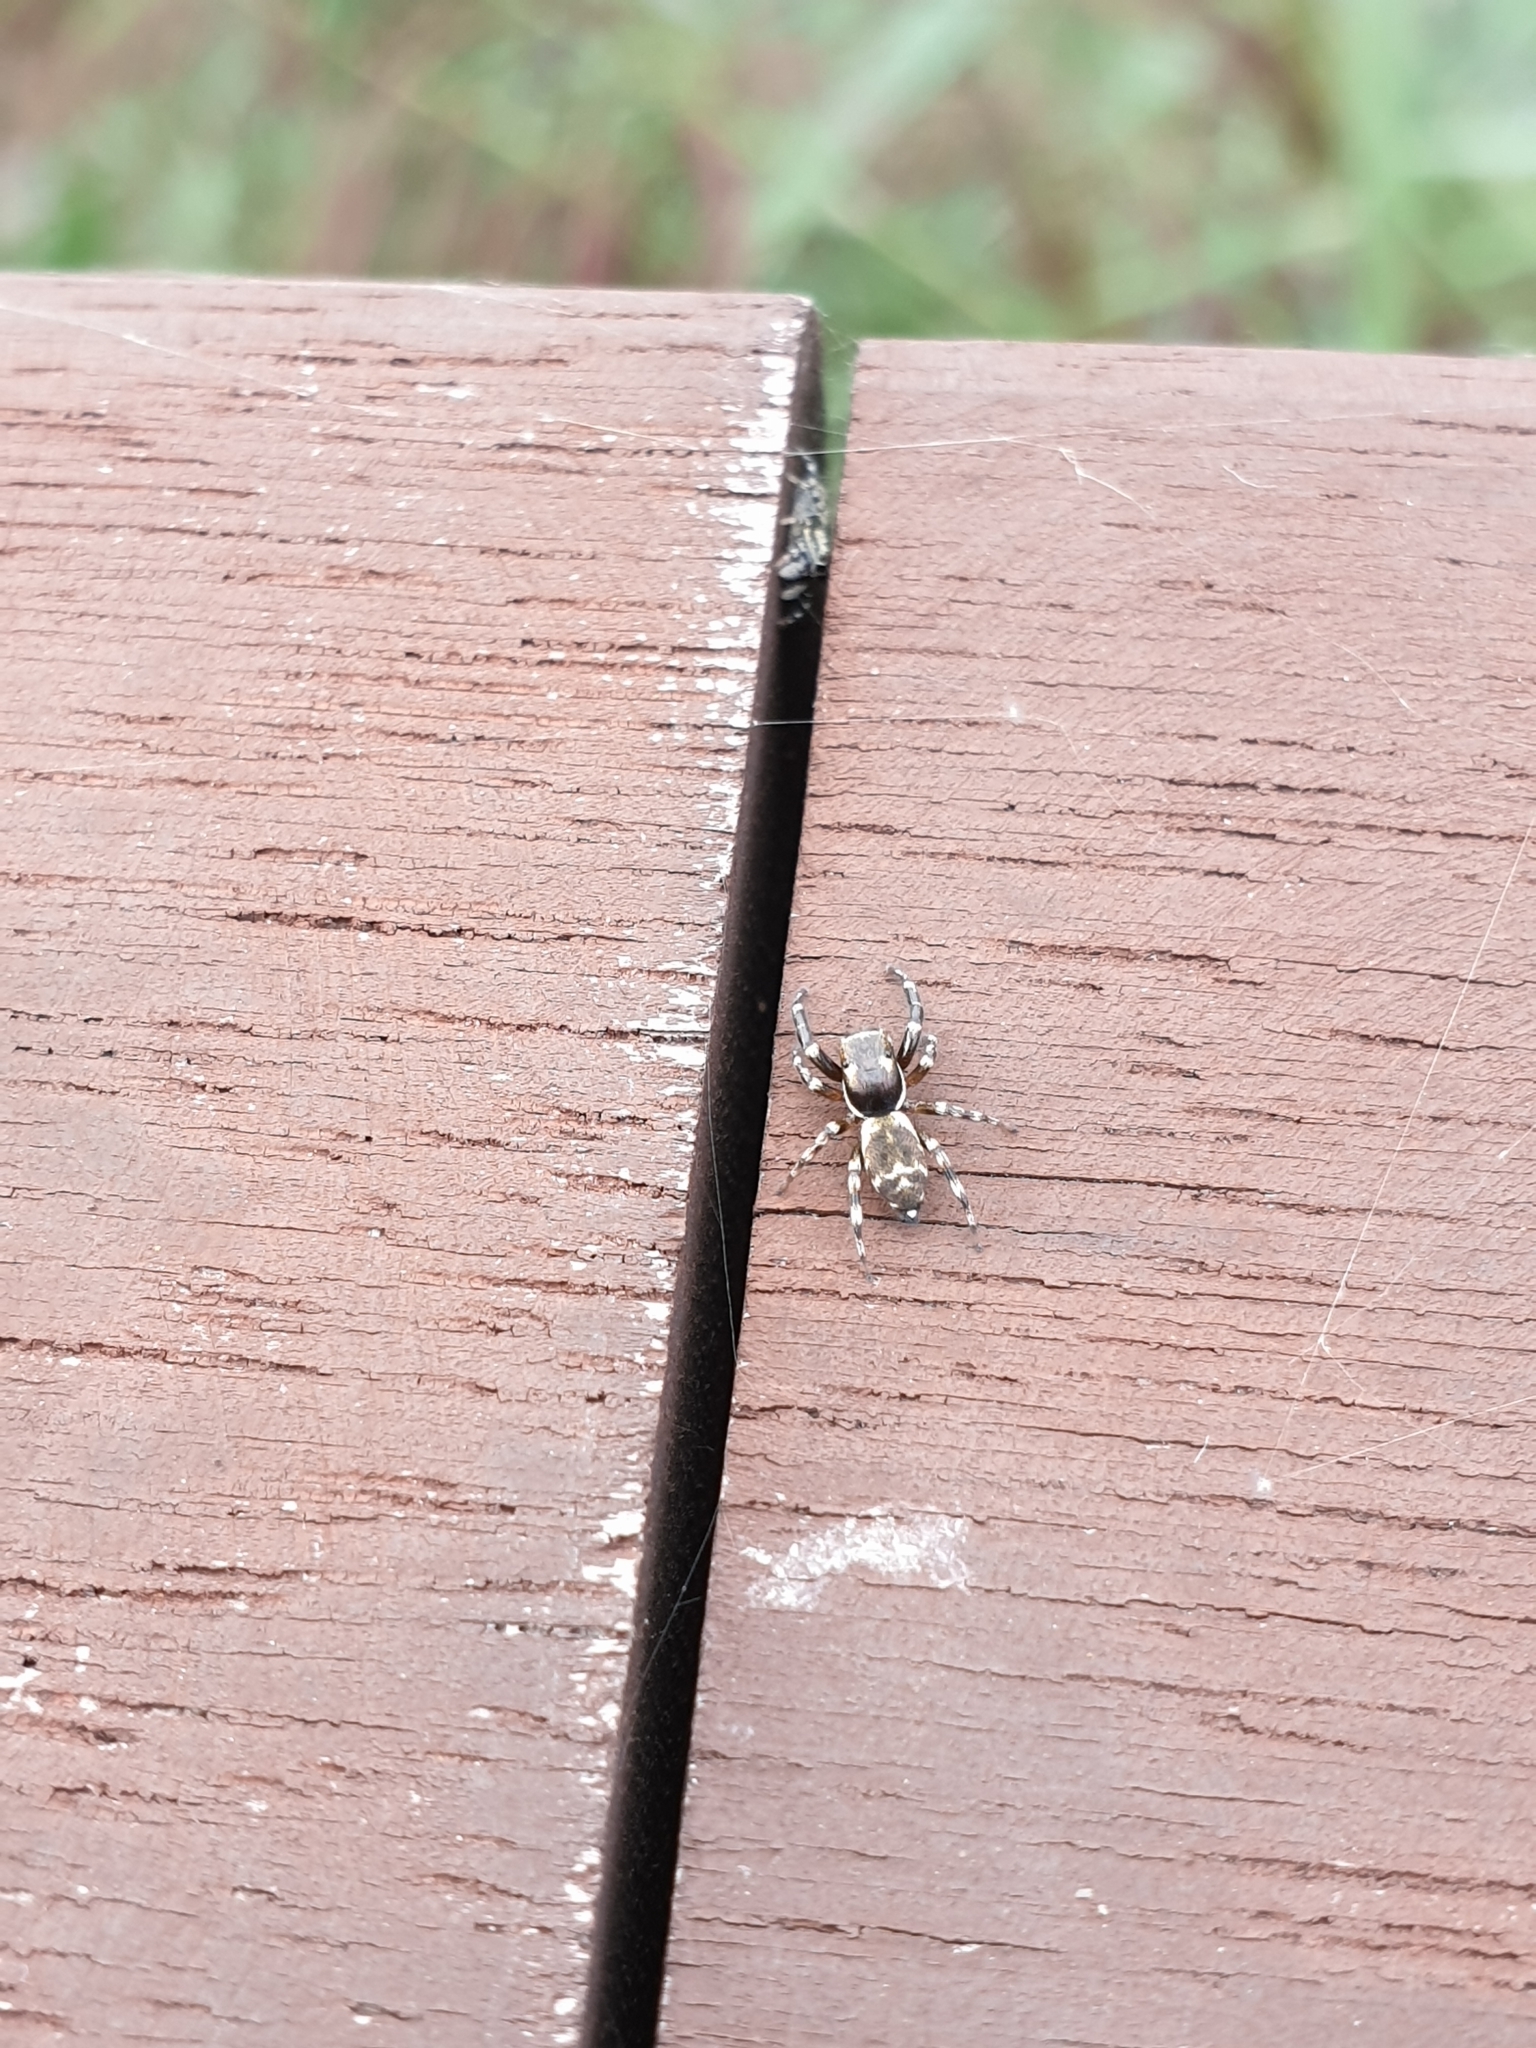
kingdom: Animalia
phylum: Arthropoda
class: Arachnida
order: Araneae
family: Salticidae
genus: Orienticius
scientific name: Orienticius vulpes
